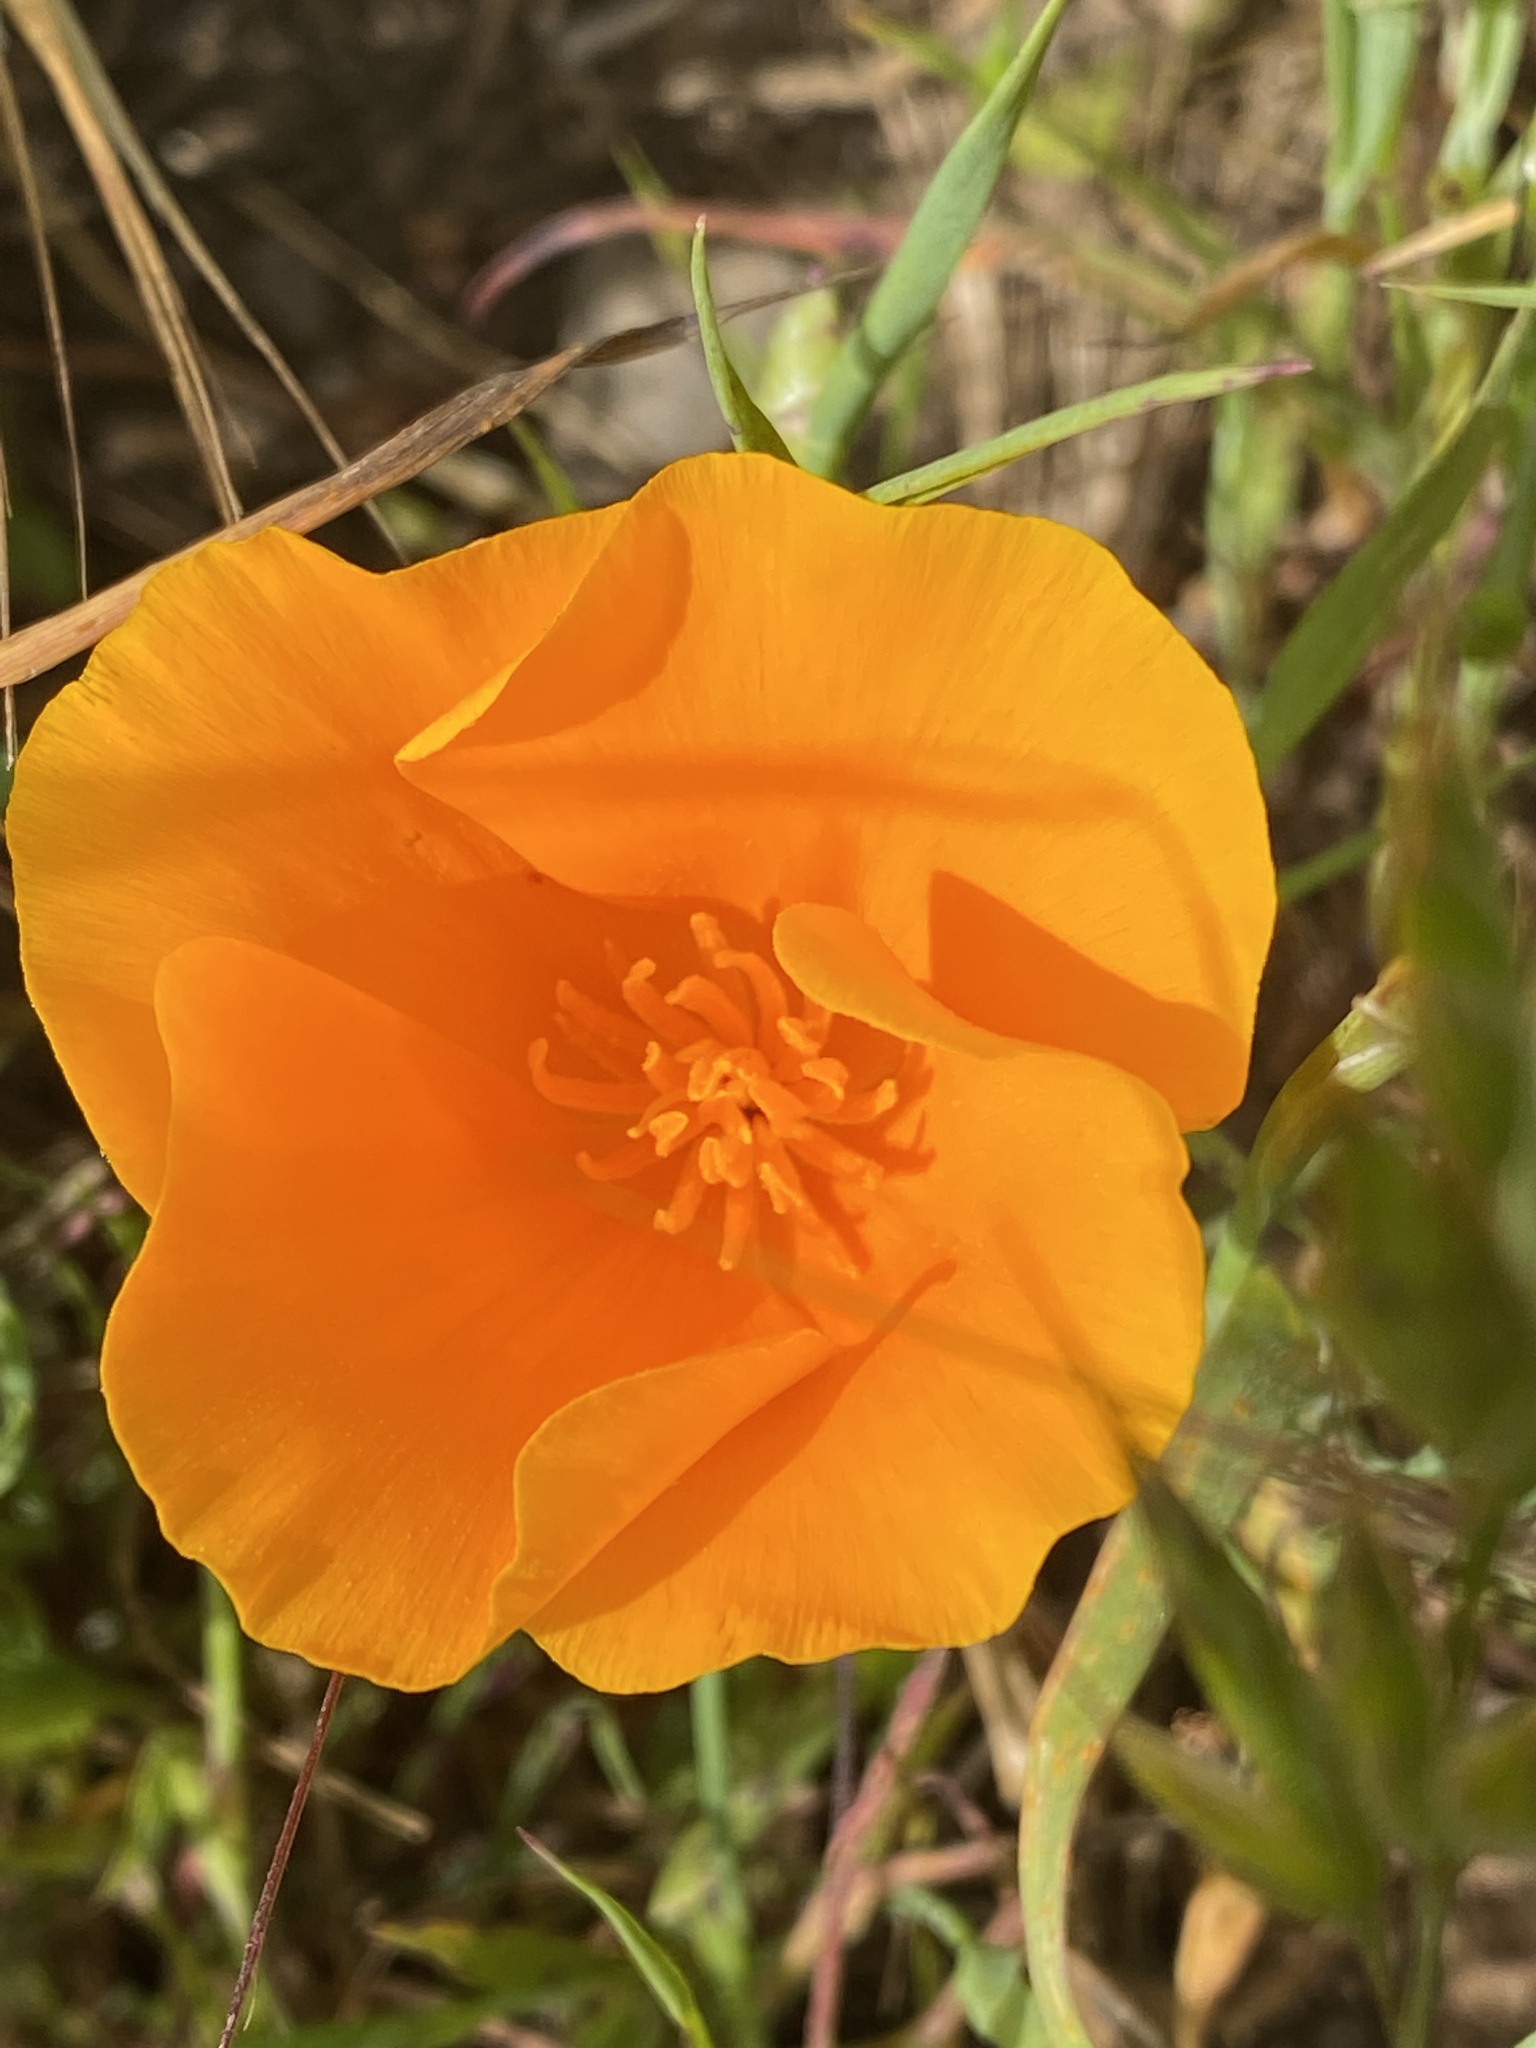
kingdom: Plantae
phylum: Tracheophyta
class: Magnoliopsida
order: Ranunculales
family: Papaveraceae
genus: Eschscholzia
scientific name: Eschscholzia californica
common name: California poppy
